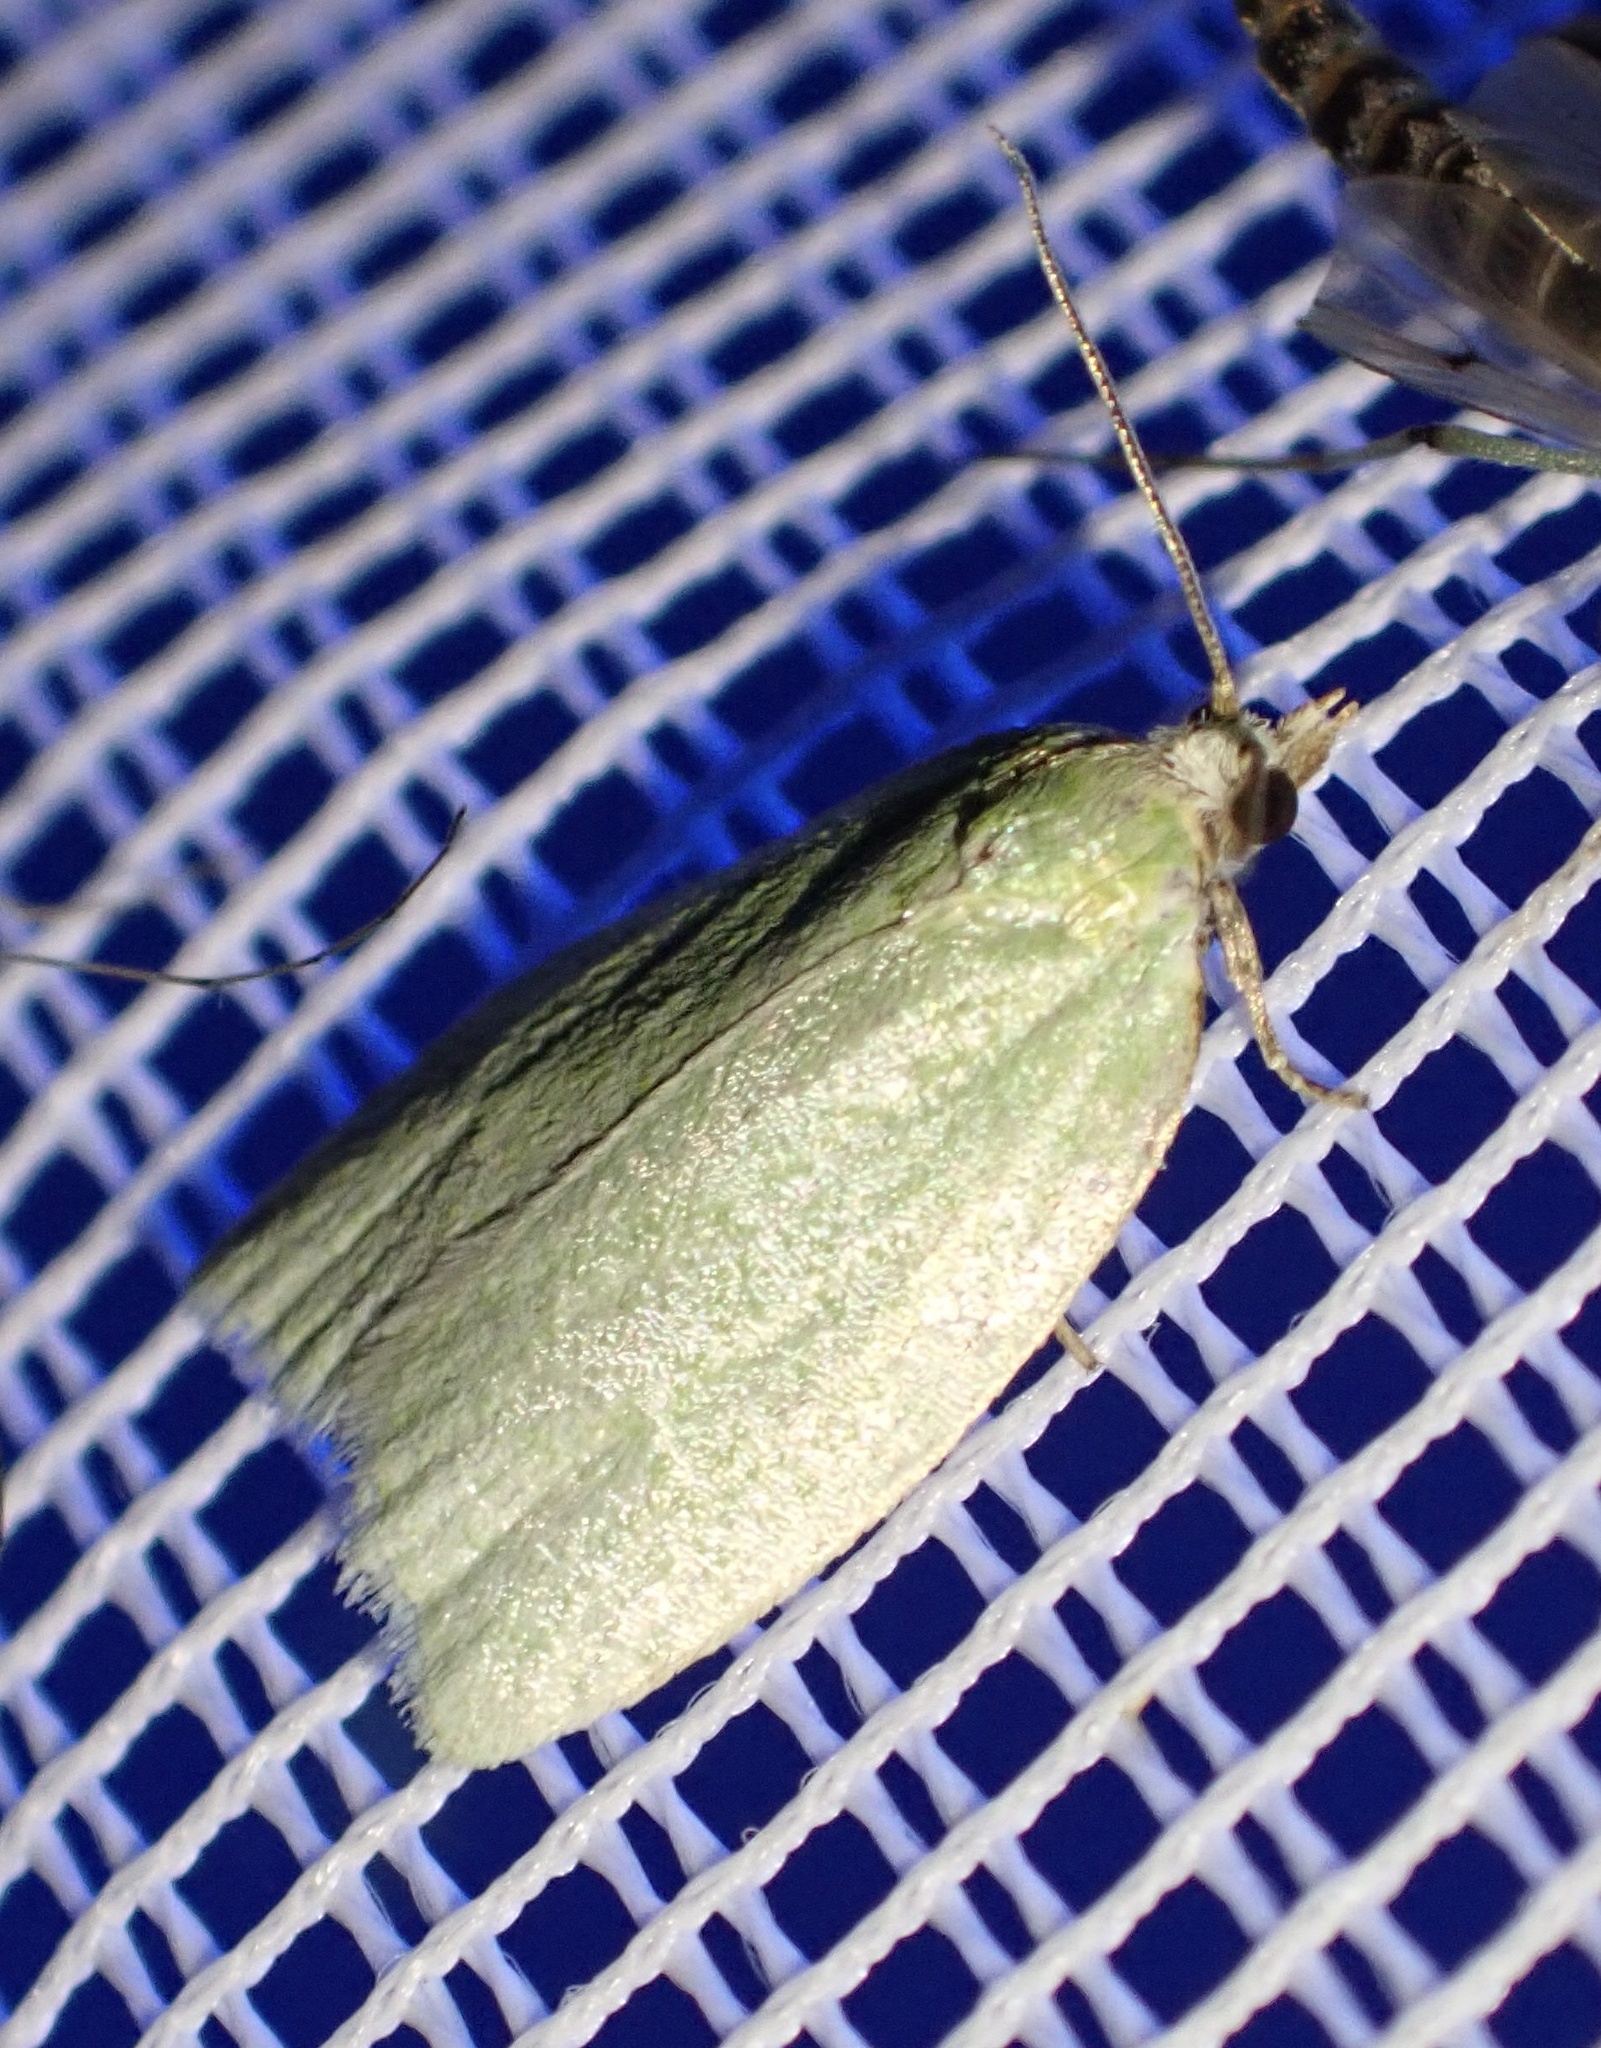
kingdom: Animalia
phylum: Arthropoda
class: Insecta
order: Lepidoptera
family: Tortricidae
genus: Tortrix
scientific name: Tortrix viridana
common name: Green oak tortrix
